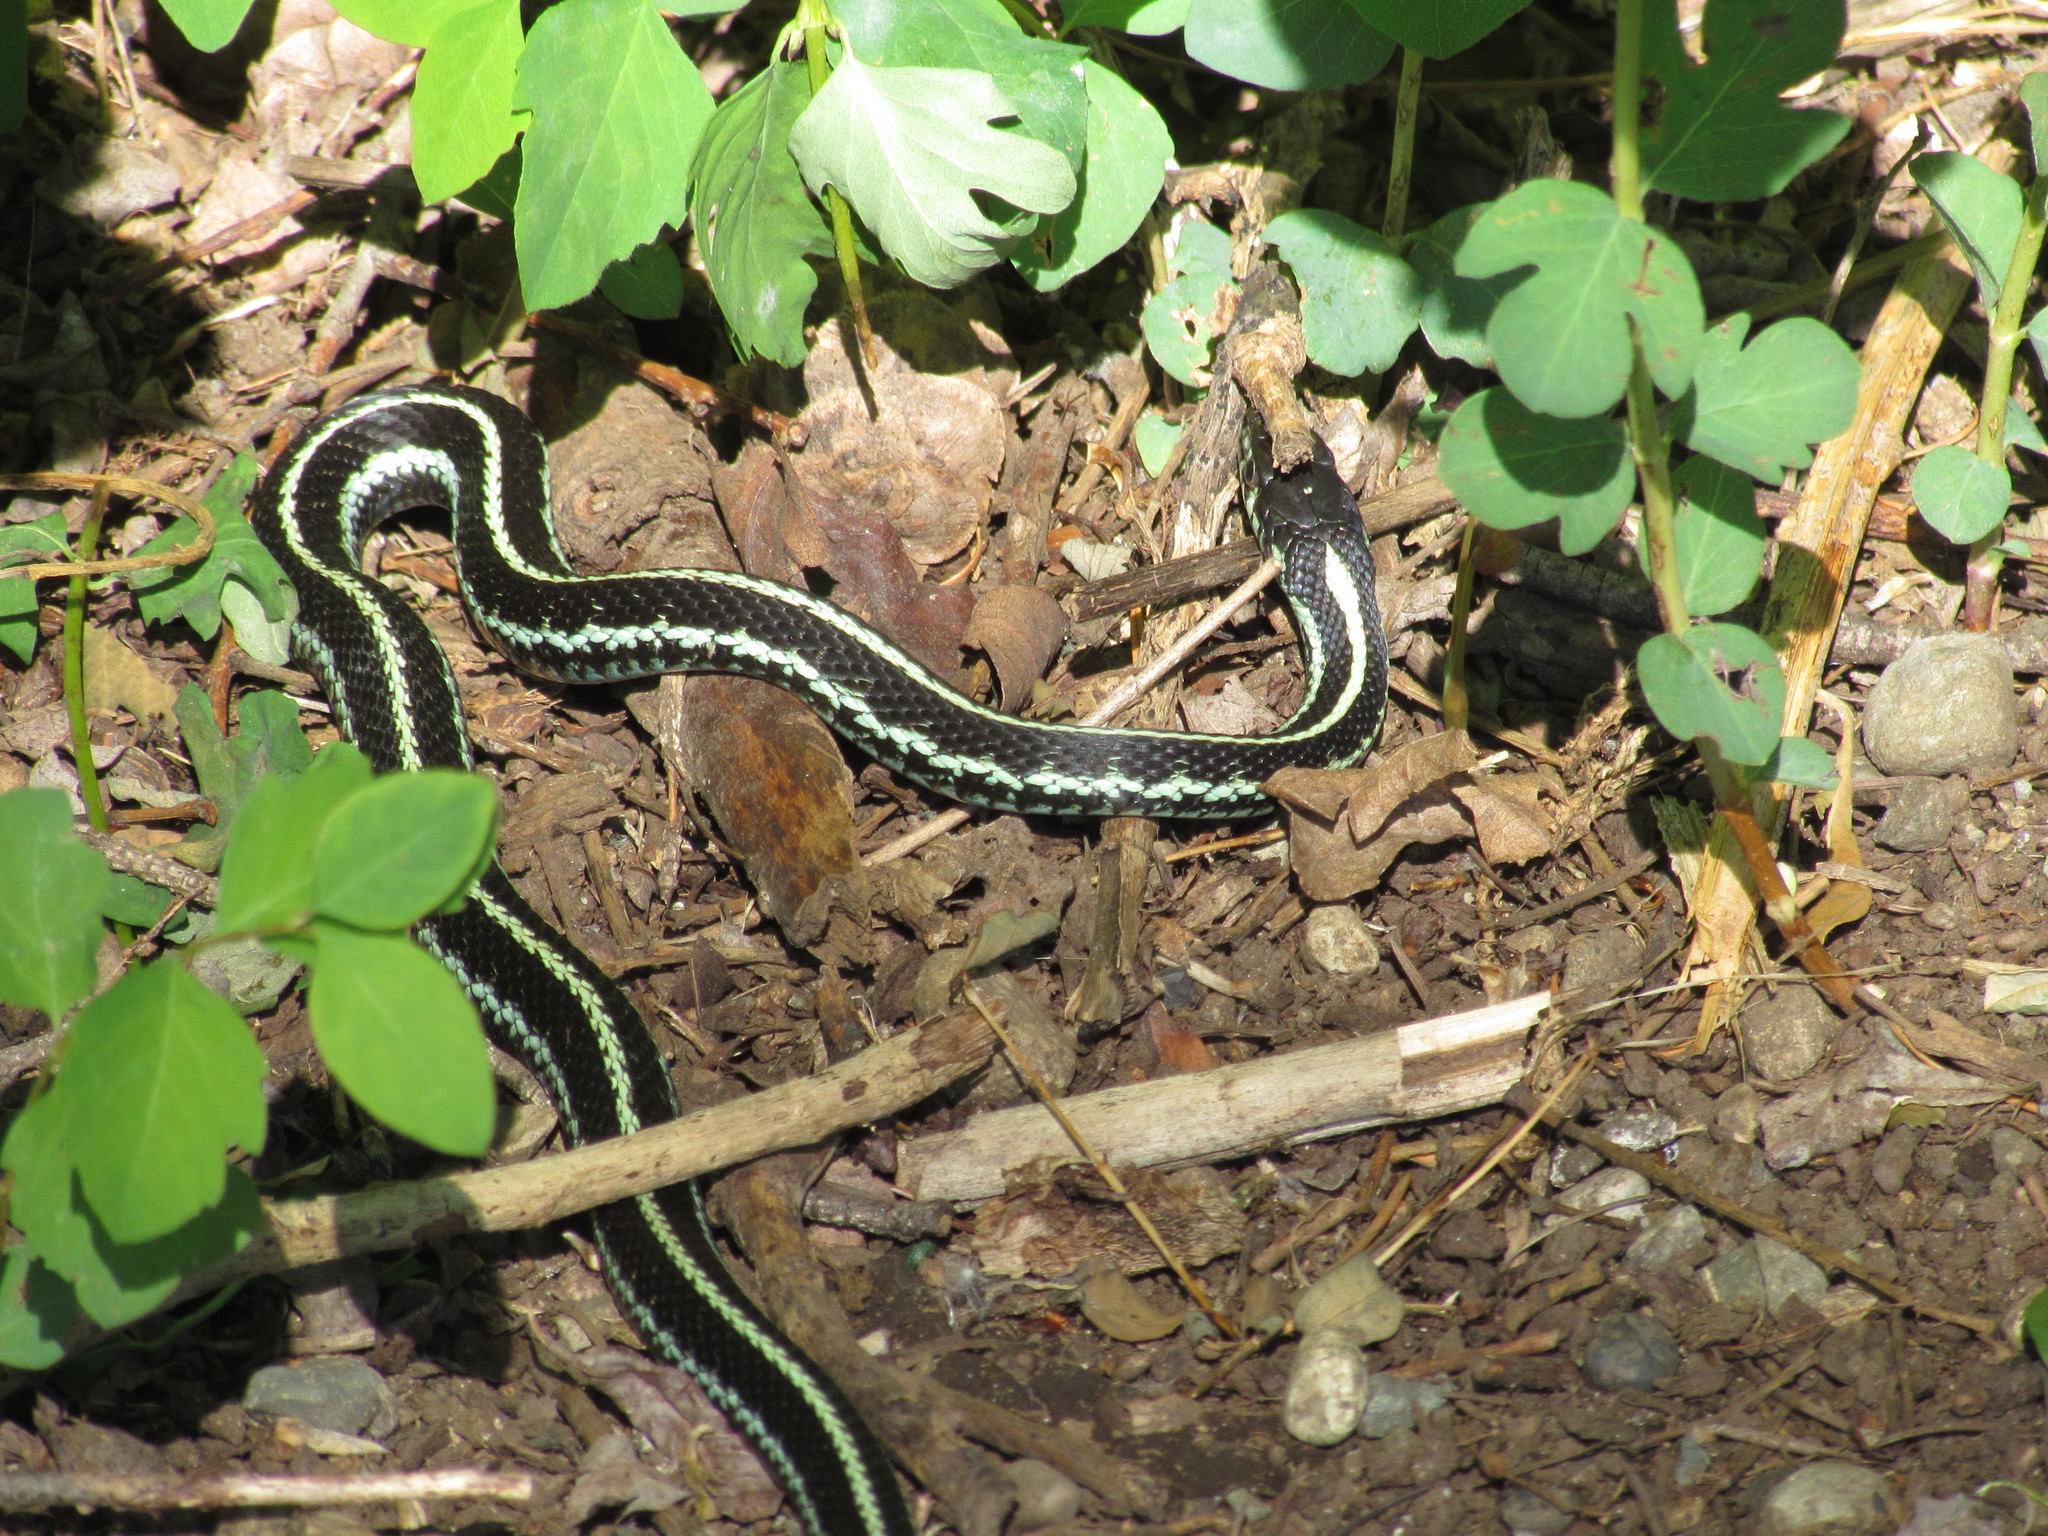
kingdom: Animalia
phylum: Chordata
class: Squamata
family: Colubridae
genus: Thamnophis
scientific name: Thamnophis sirtalis
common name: Common garter snake
